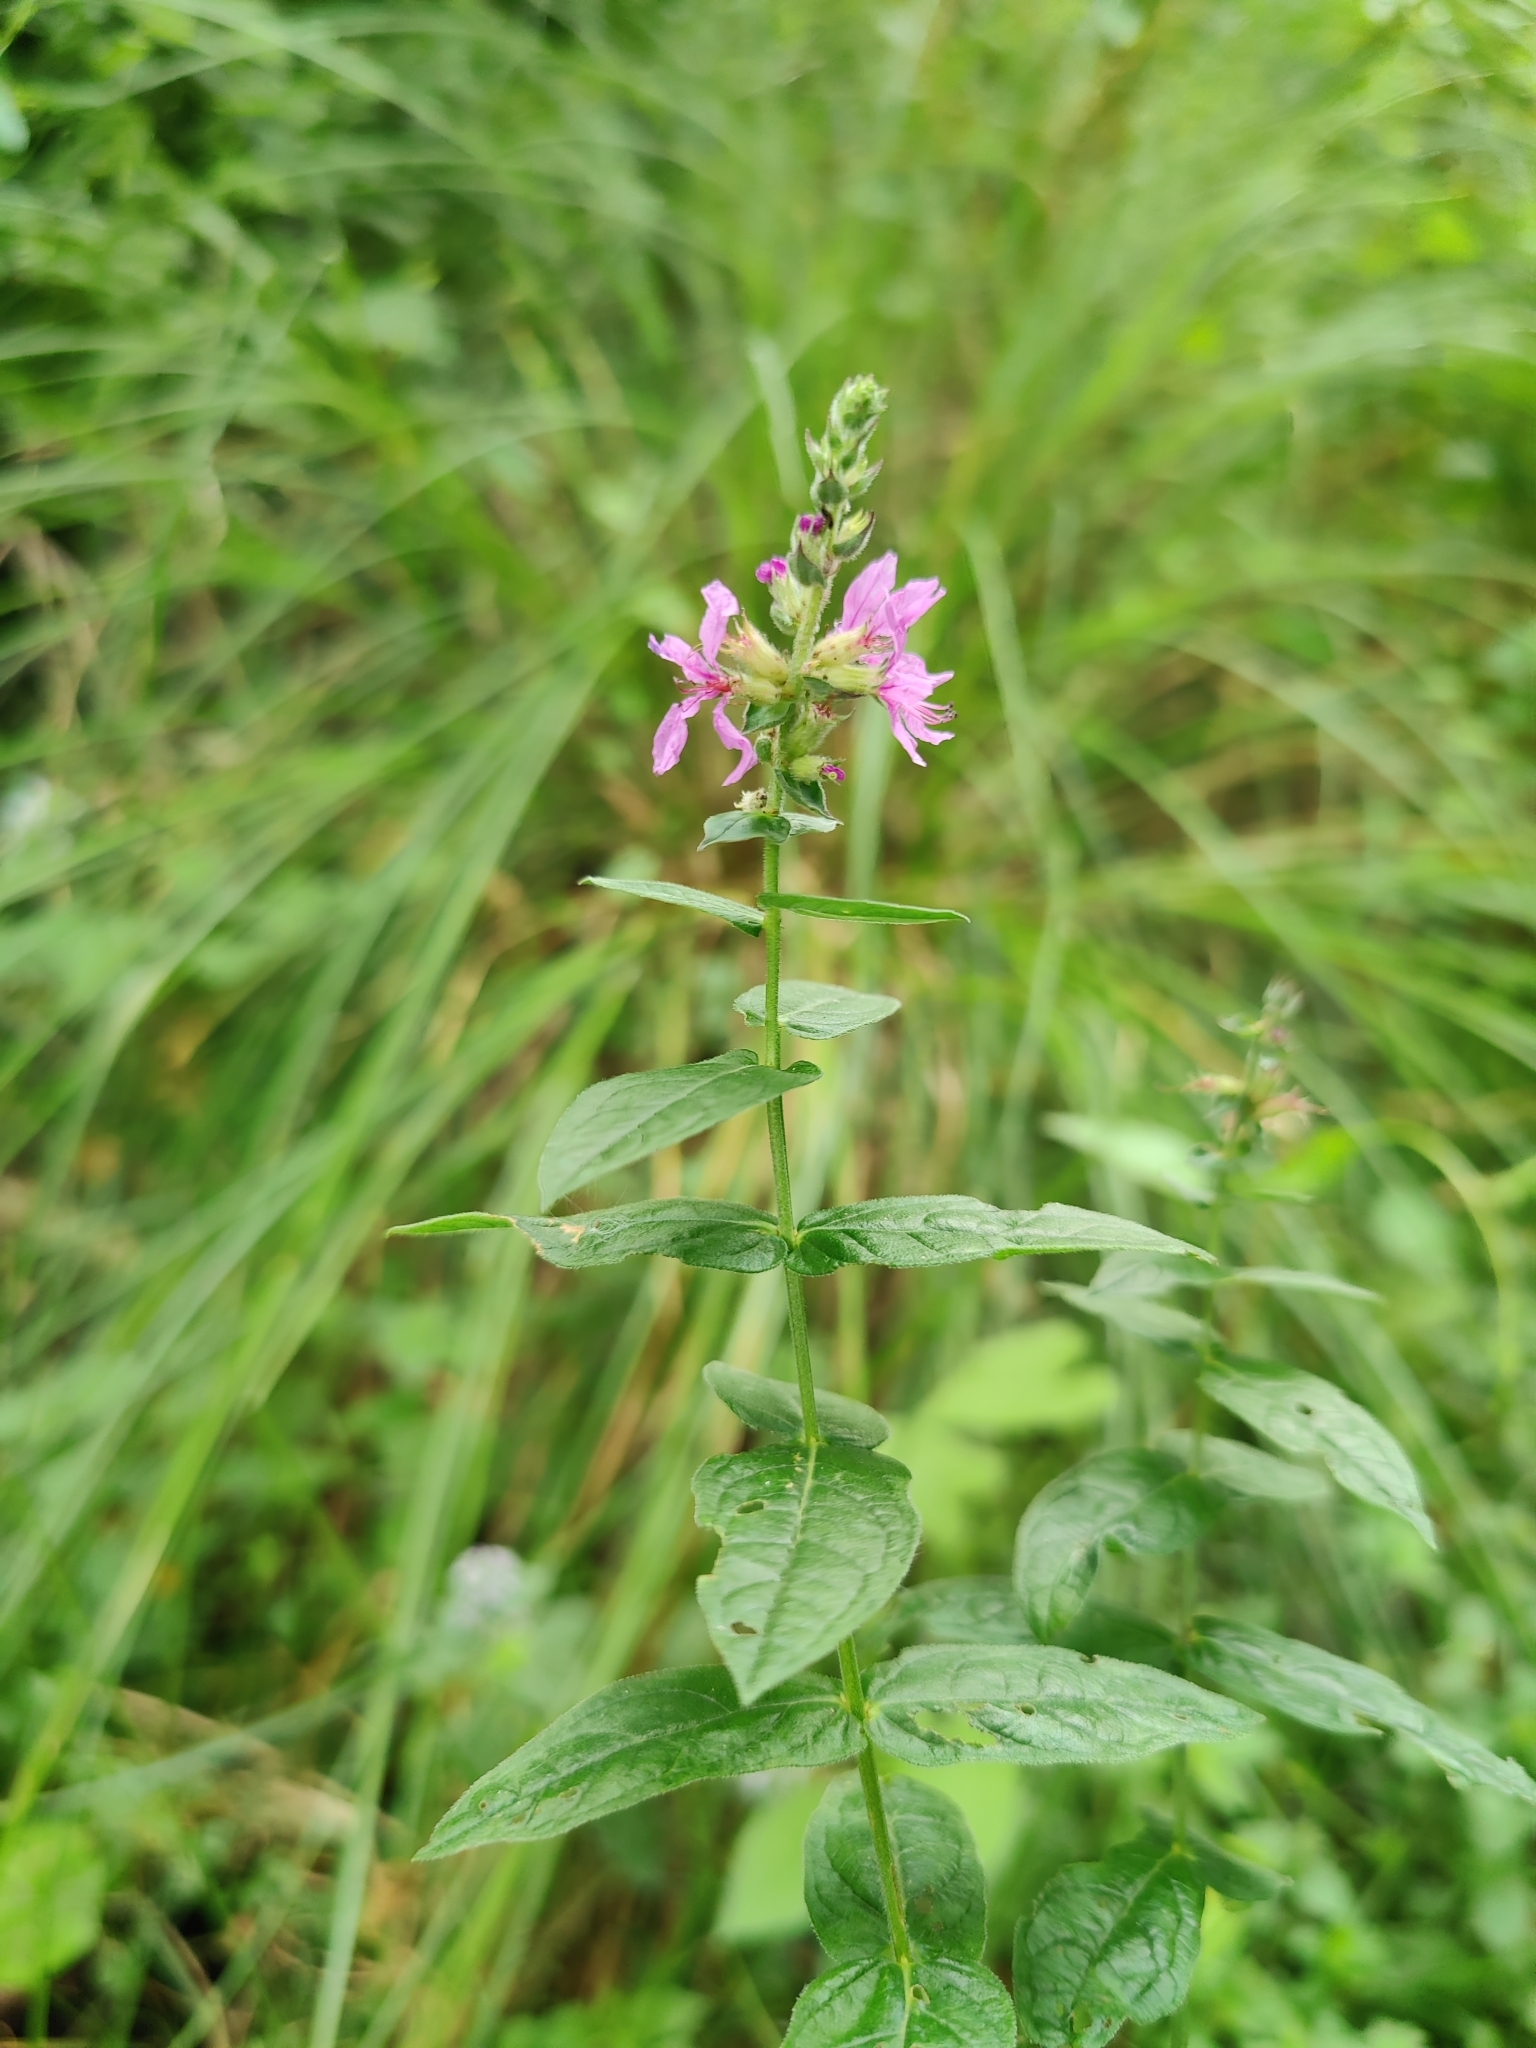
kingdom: Plantae
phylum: Tracheophyta
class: Magnoliopsida
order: Myrtales
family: Lythraceae
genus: Lythrum
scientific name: Lythrum salicaria
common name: Purple loosestrife
